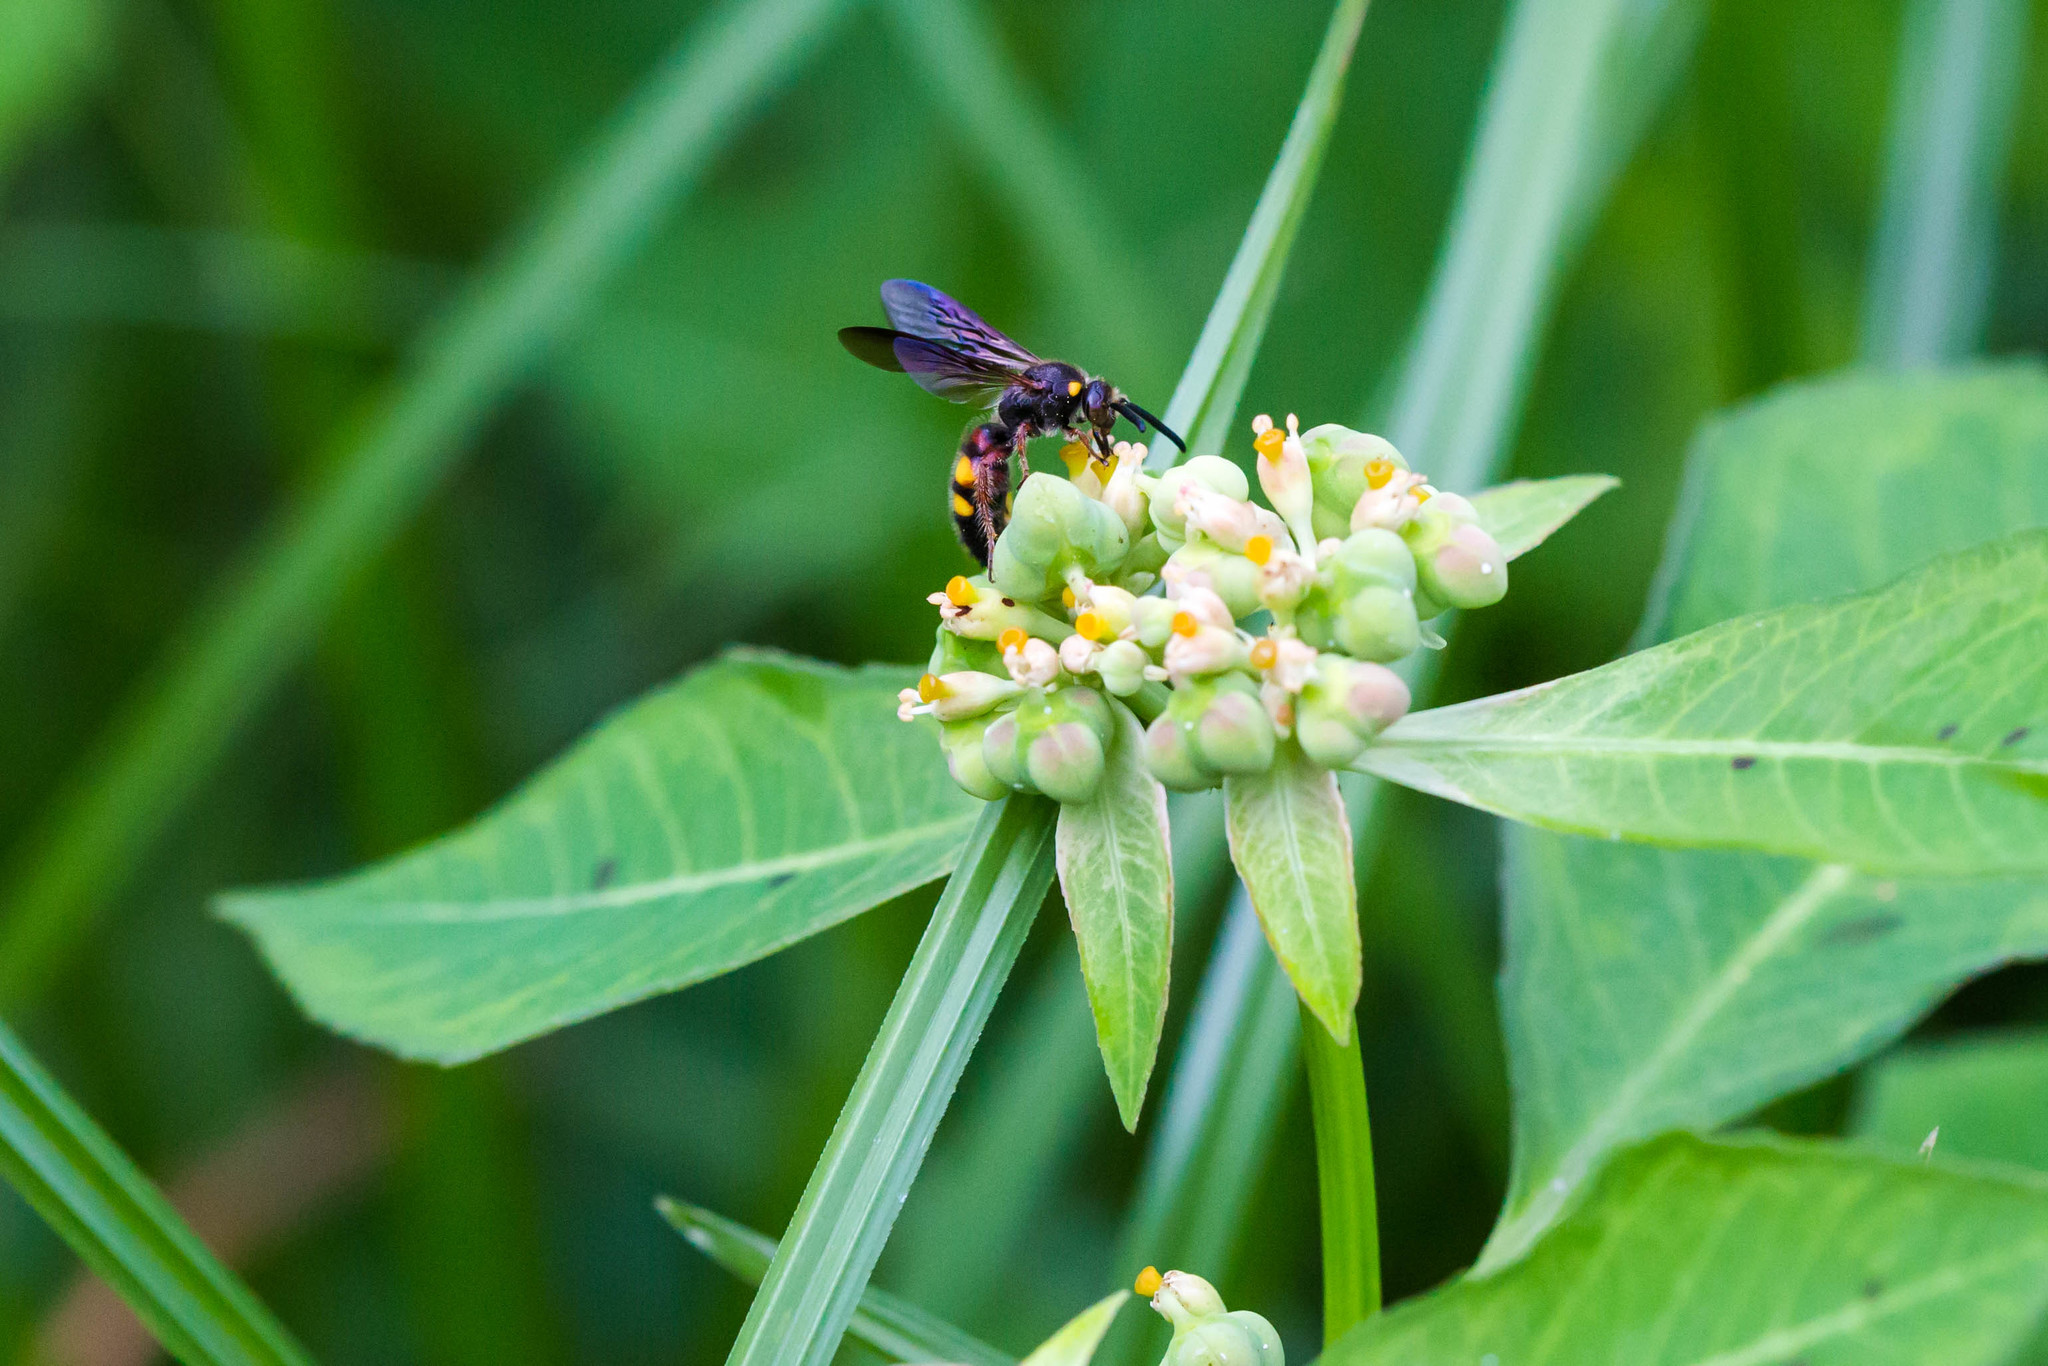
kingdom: Animalia
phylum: Arthropoda
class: Insecta
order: Hymenoptera
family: Scoliidae
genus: Scolia
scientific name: Scolia nobilitata
